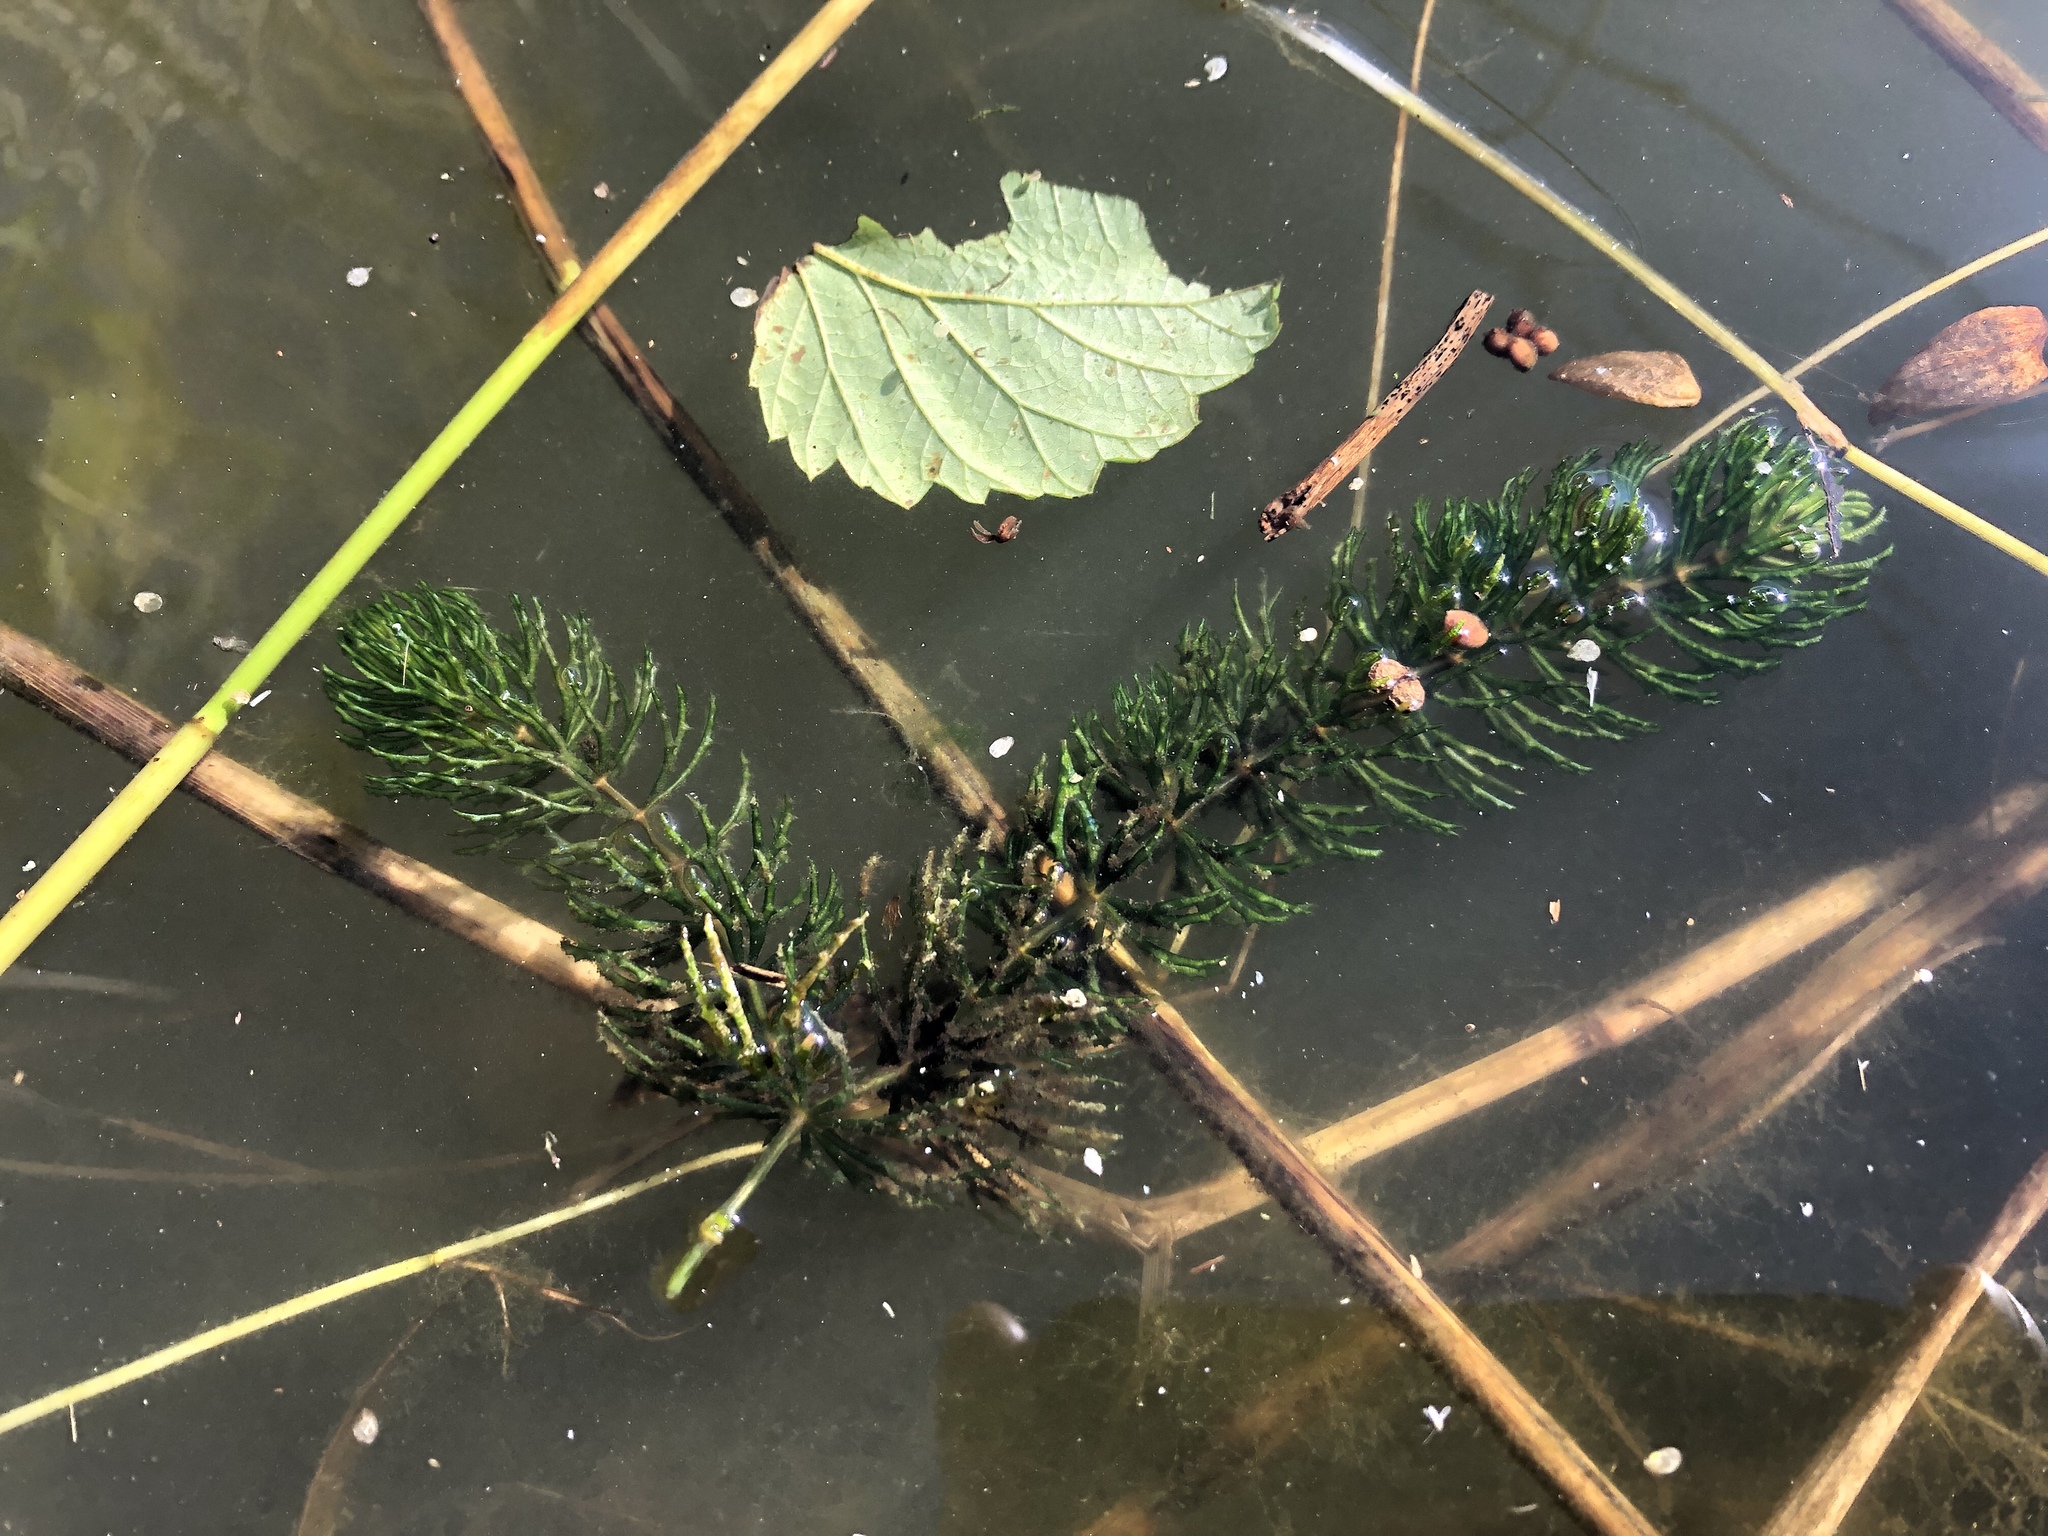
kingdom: Plantae
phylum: Tracheophyta
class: Magnoliopsida
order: Ceratophyllales
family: Ceratophyllaceae
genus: Ceratophyllum
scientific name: Ceratophyllum demersum
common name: Rigid hornwort
